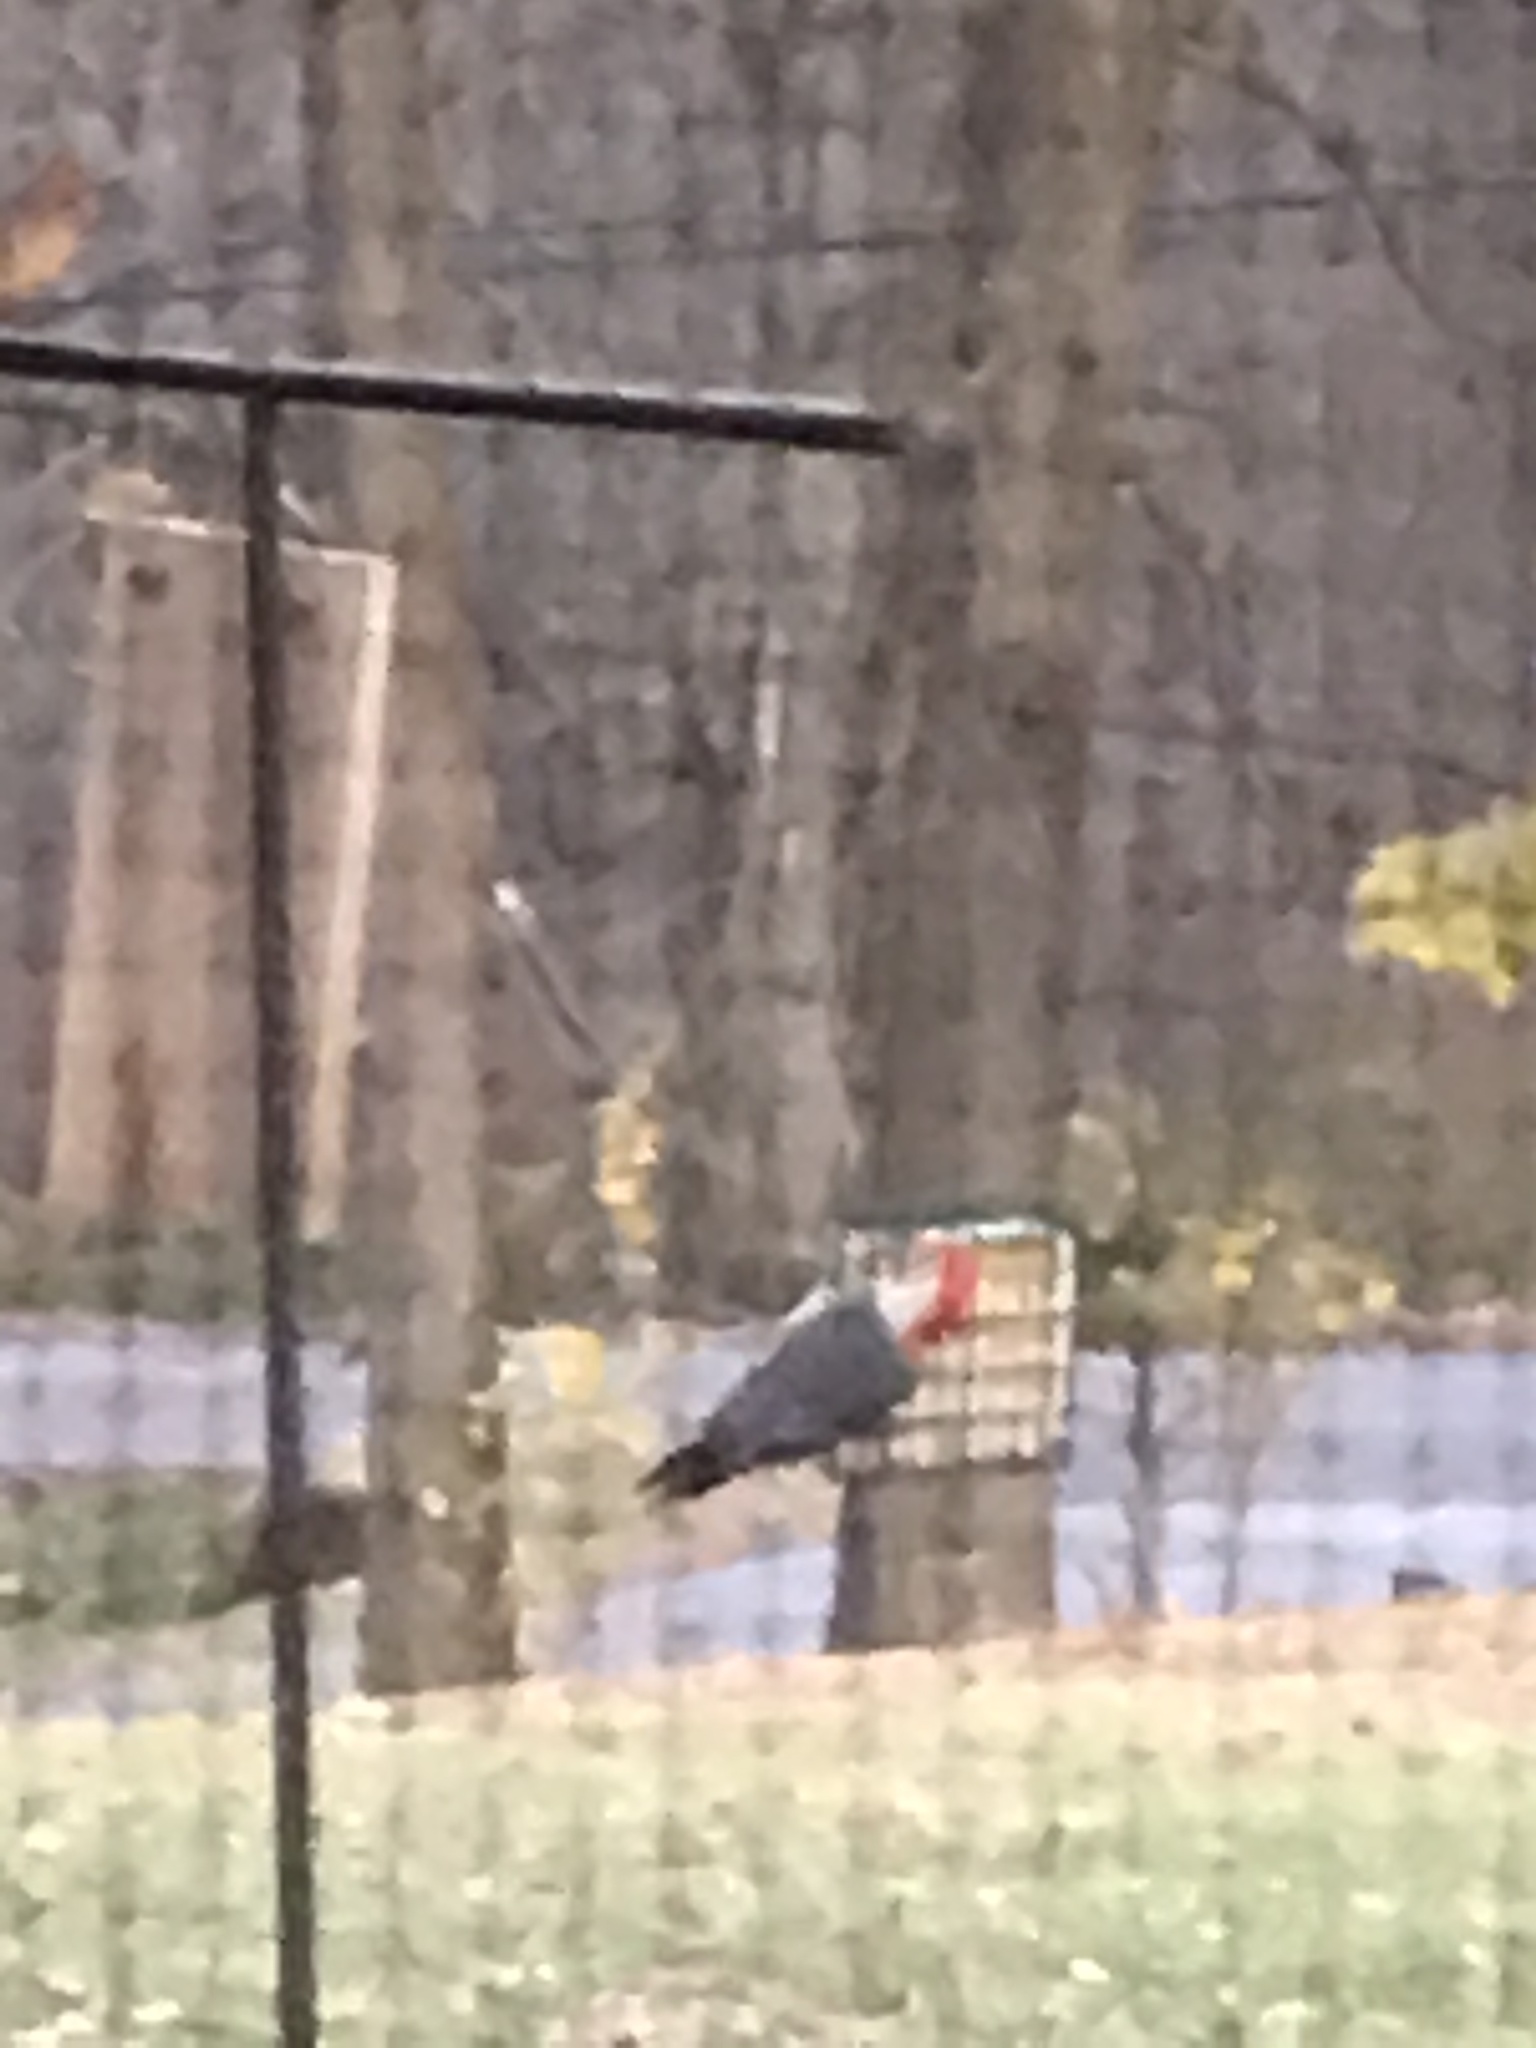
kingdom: Animalia
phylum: Chordata
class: Aves
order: Piciformes
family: Picidae
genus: Melanerpes
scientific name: Melanerpes carolinus
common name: Red-bellied woodpecker
